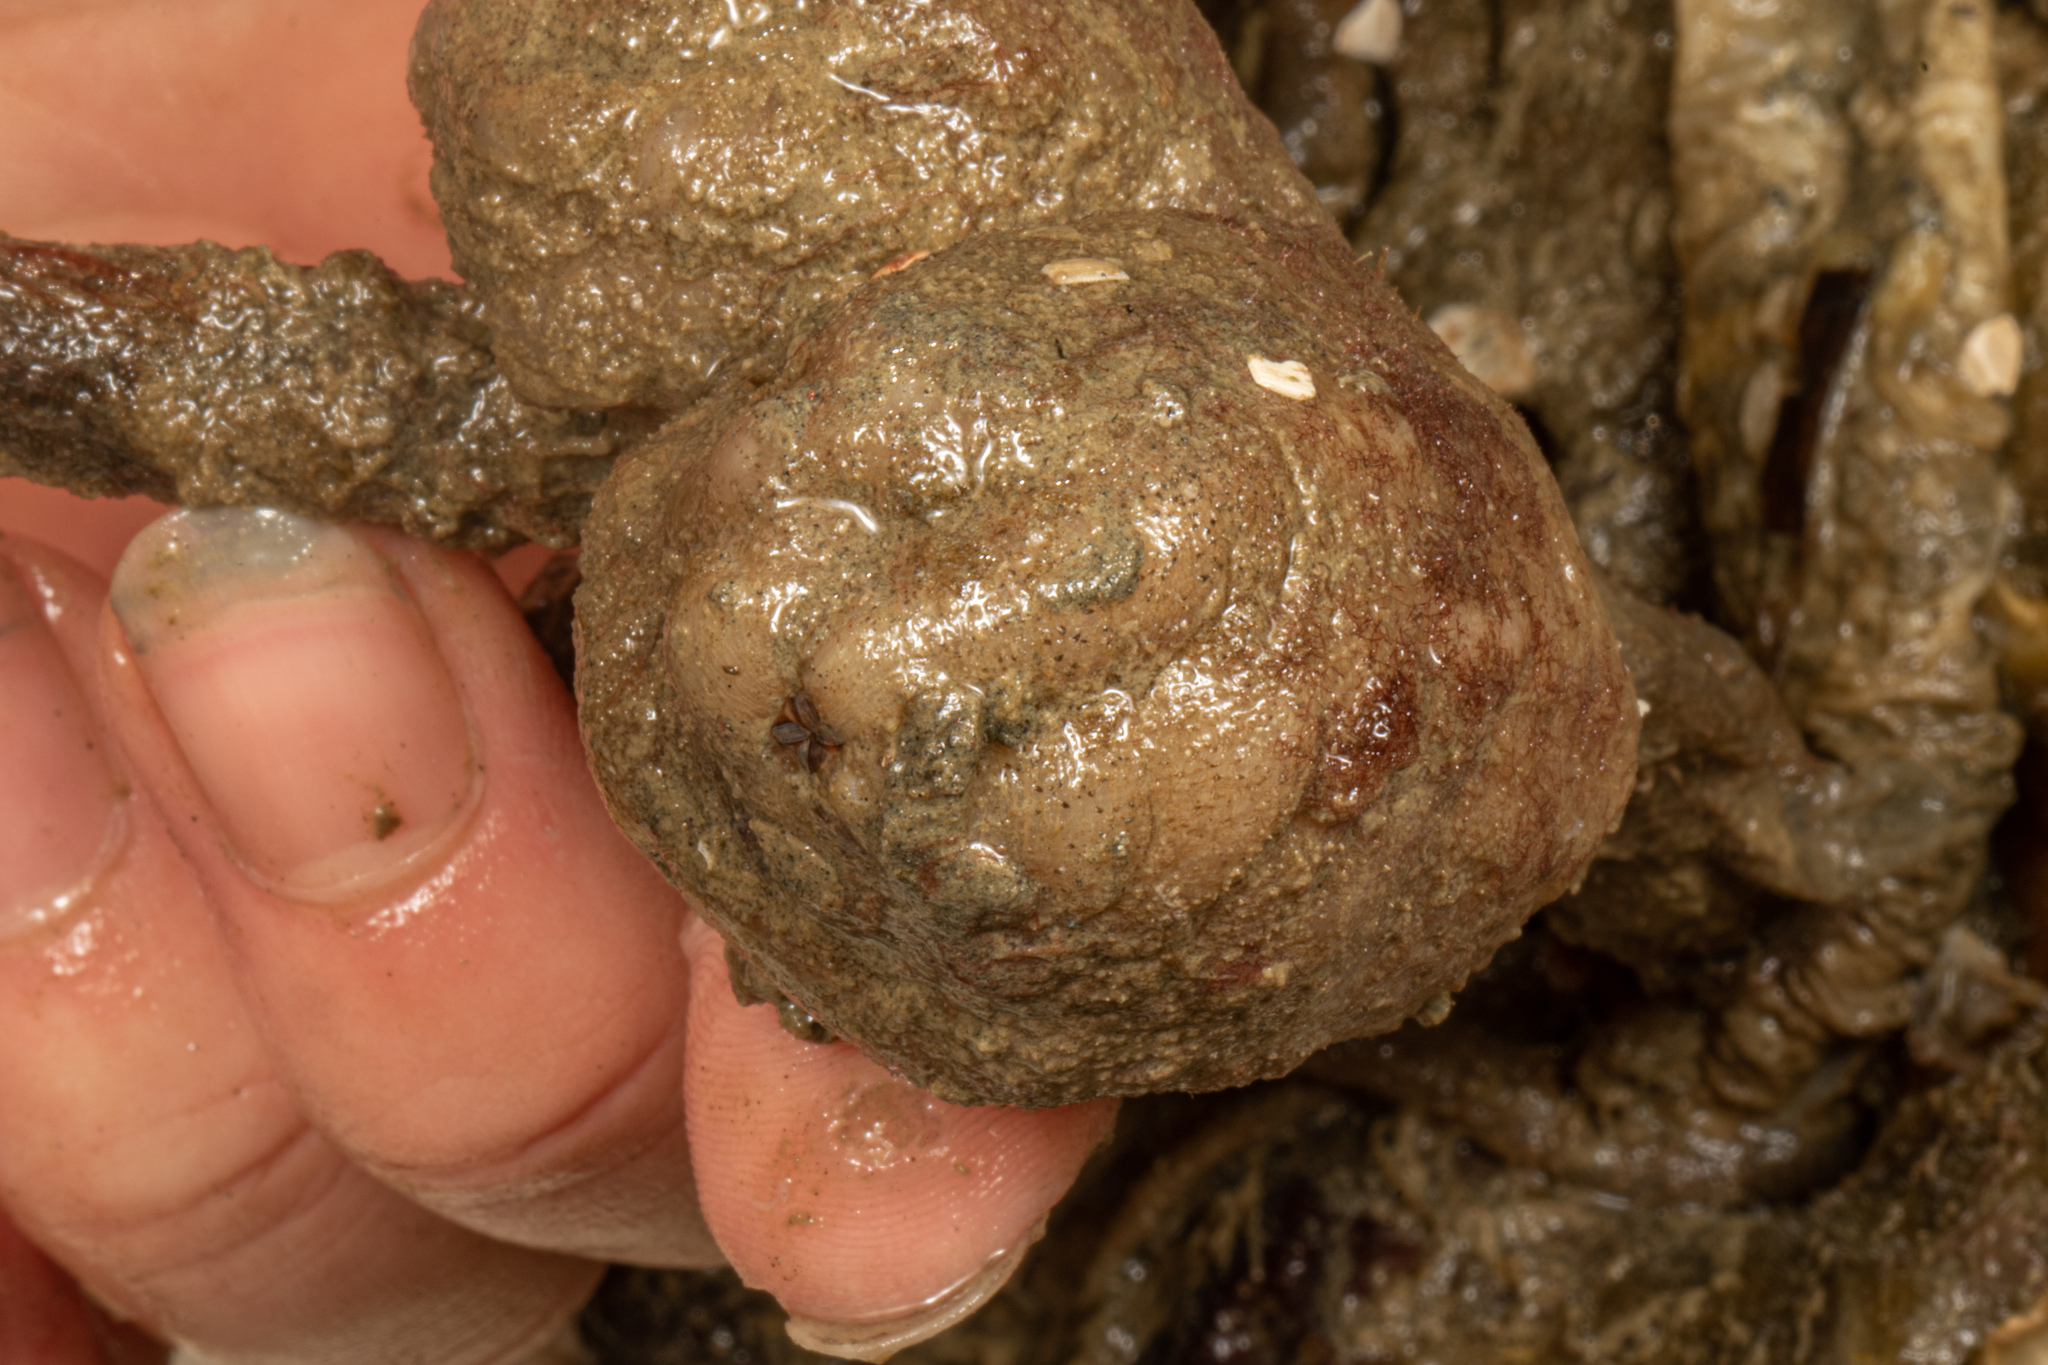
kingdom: Animalia
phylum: Chordata
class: Ascidiacea
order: Stolidobranchia
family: Styelidae
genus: Styela
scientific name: Styela plicata
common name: Pleated tunicate
